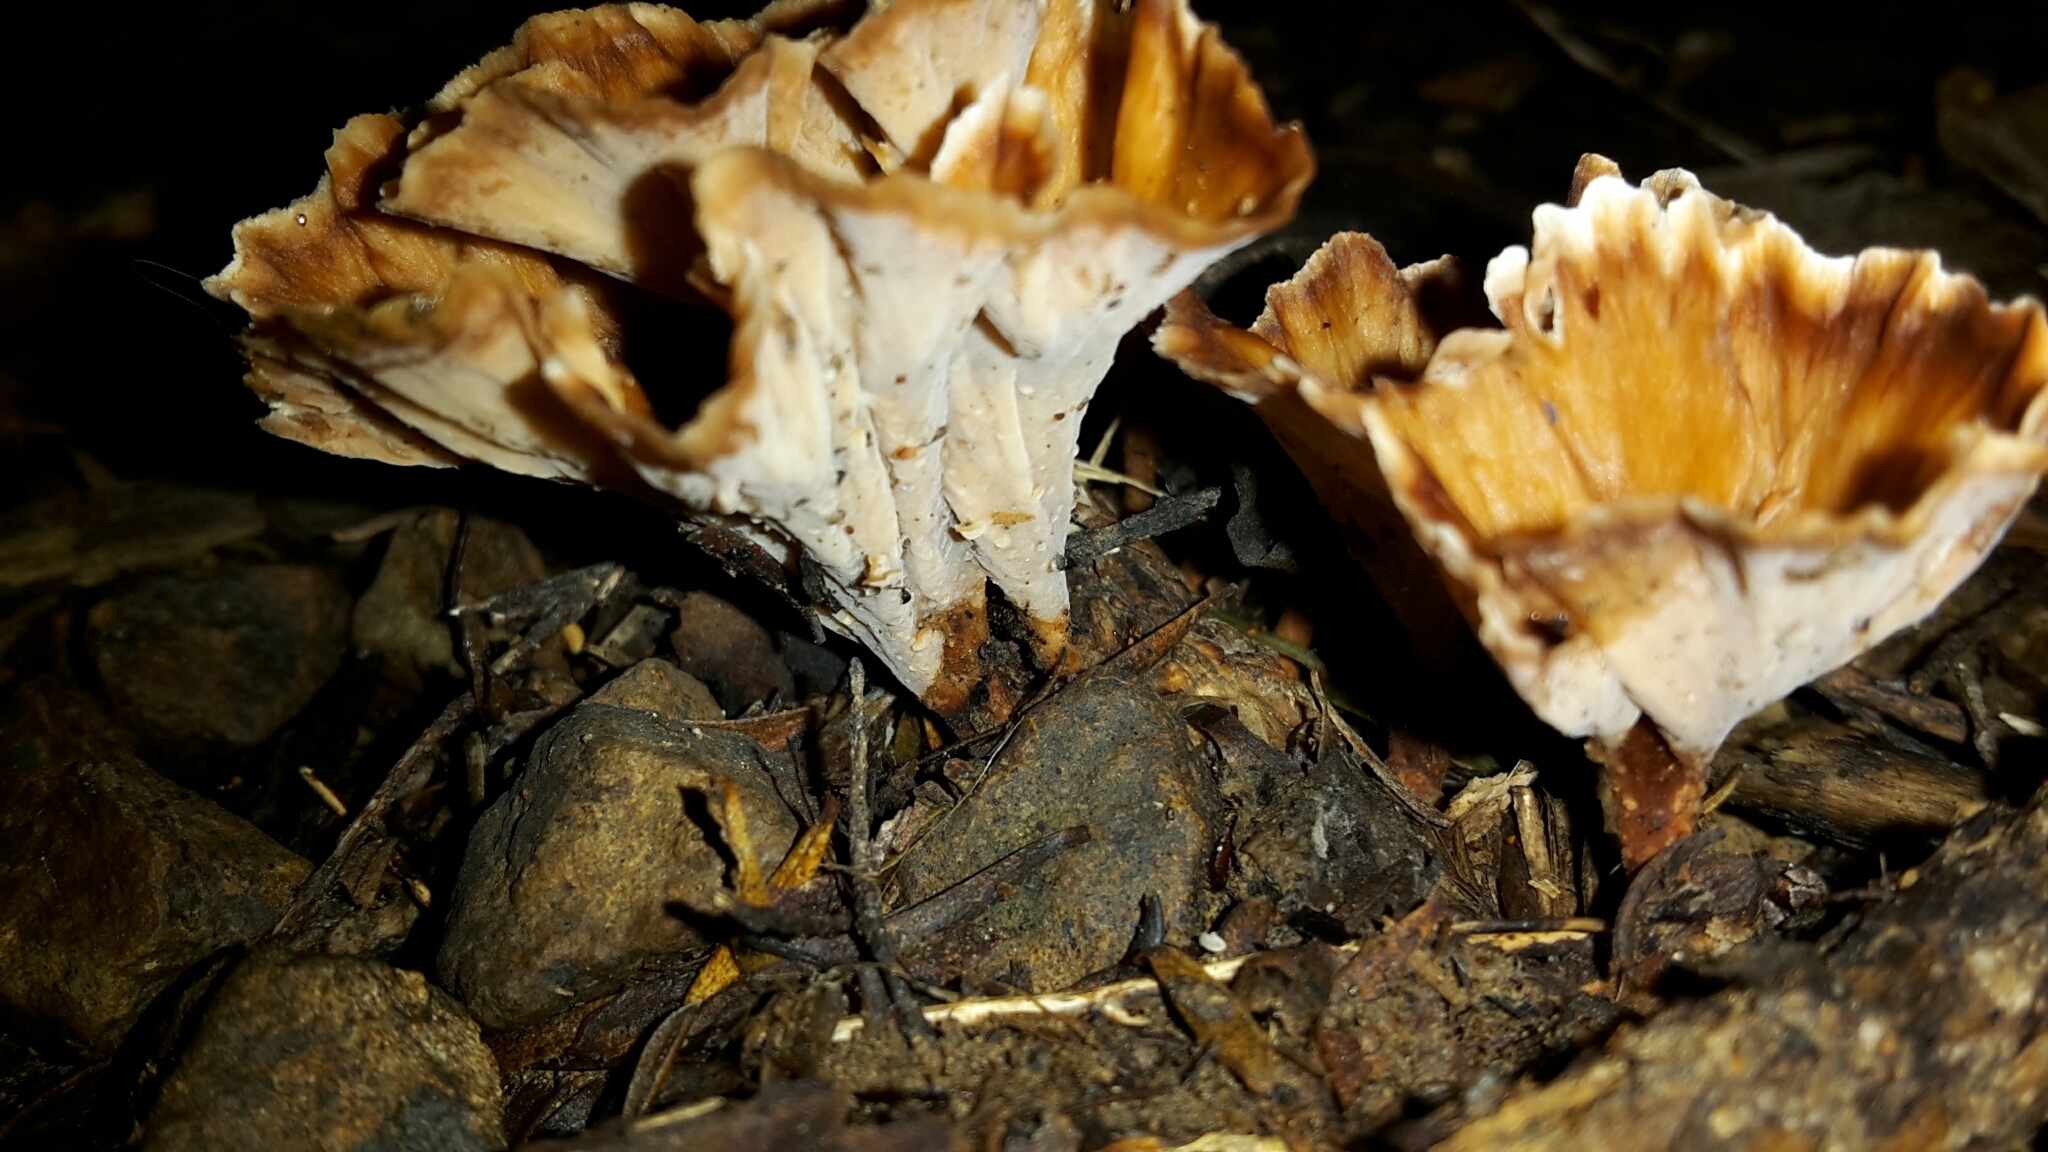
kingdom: Fungi
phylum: Basidiomycota
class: Agaricomycetes
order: Polyporales
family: Podoscyphaceae
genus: Podoscypha
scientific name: Podoscypha petalodes
